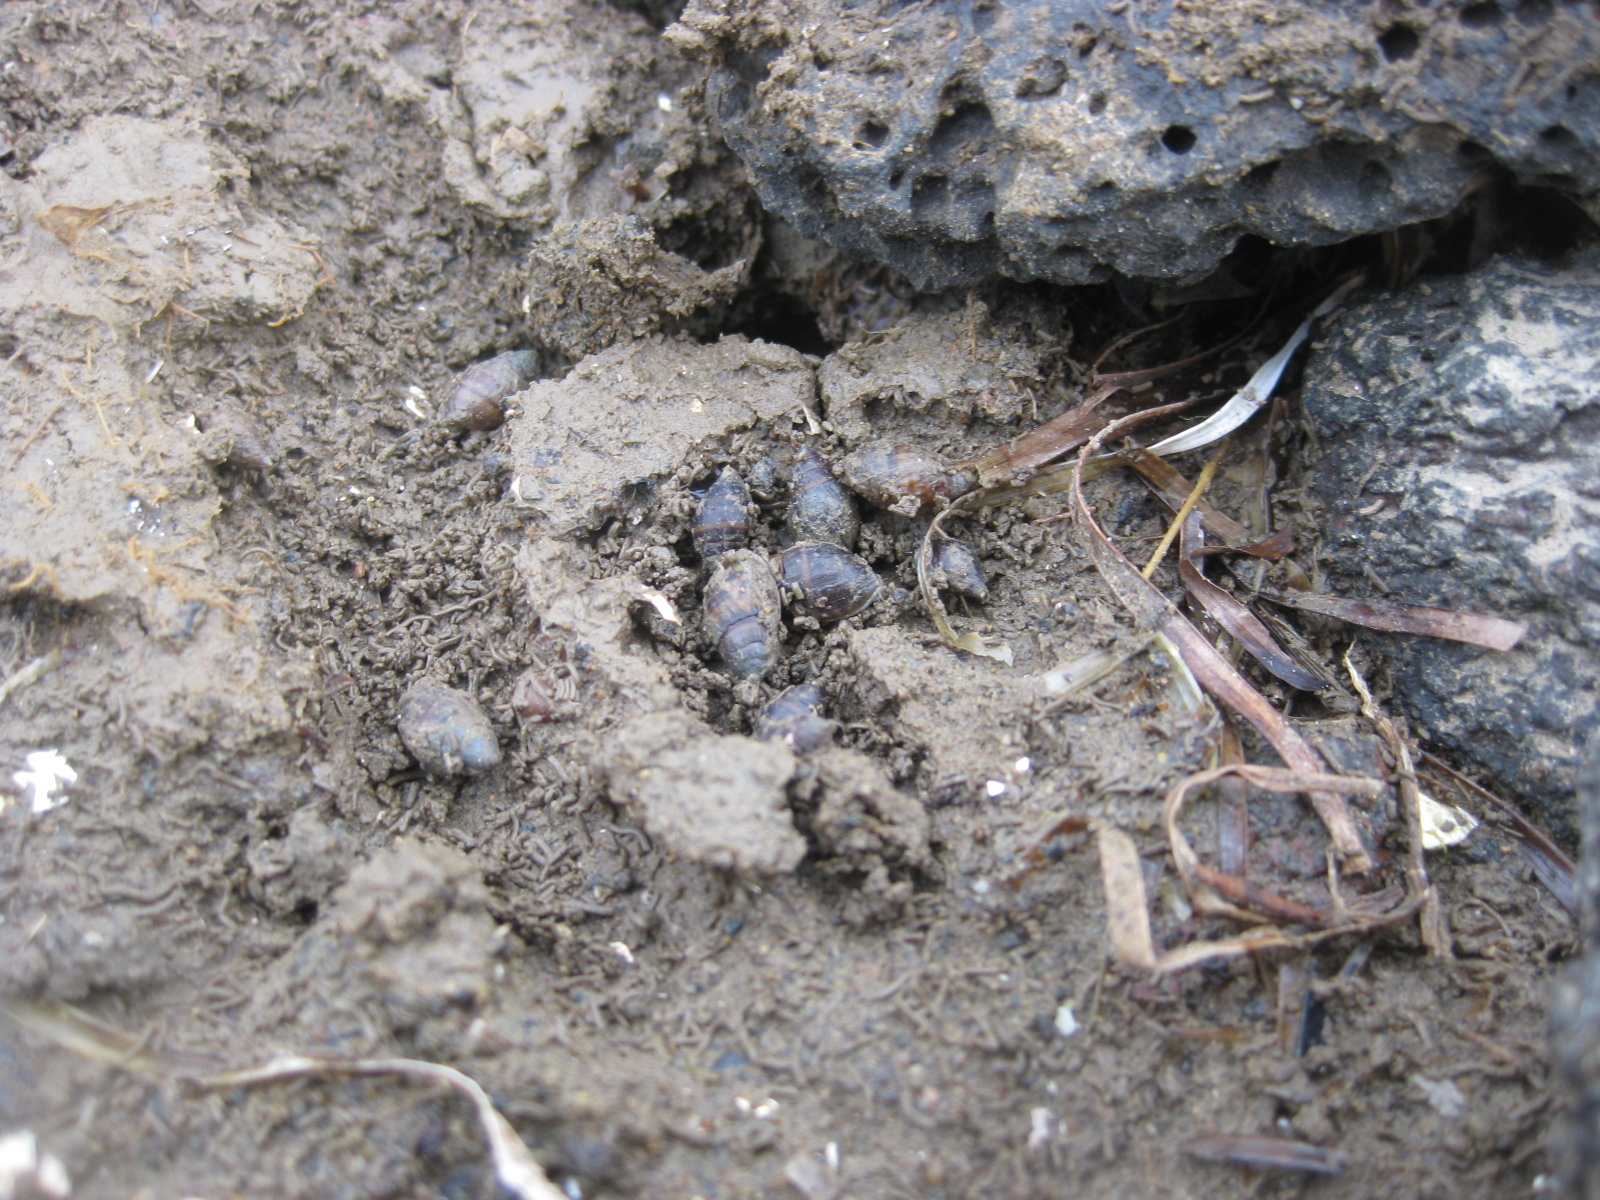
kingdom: Animalia
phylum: Mollusca
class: Gastropoda
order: Ellobiida
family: Ellobiidae
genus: Pleuroloba
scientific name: Pleuroloba costellaris
